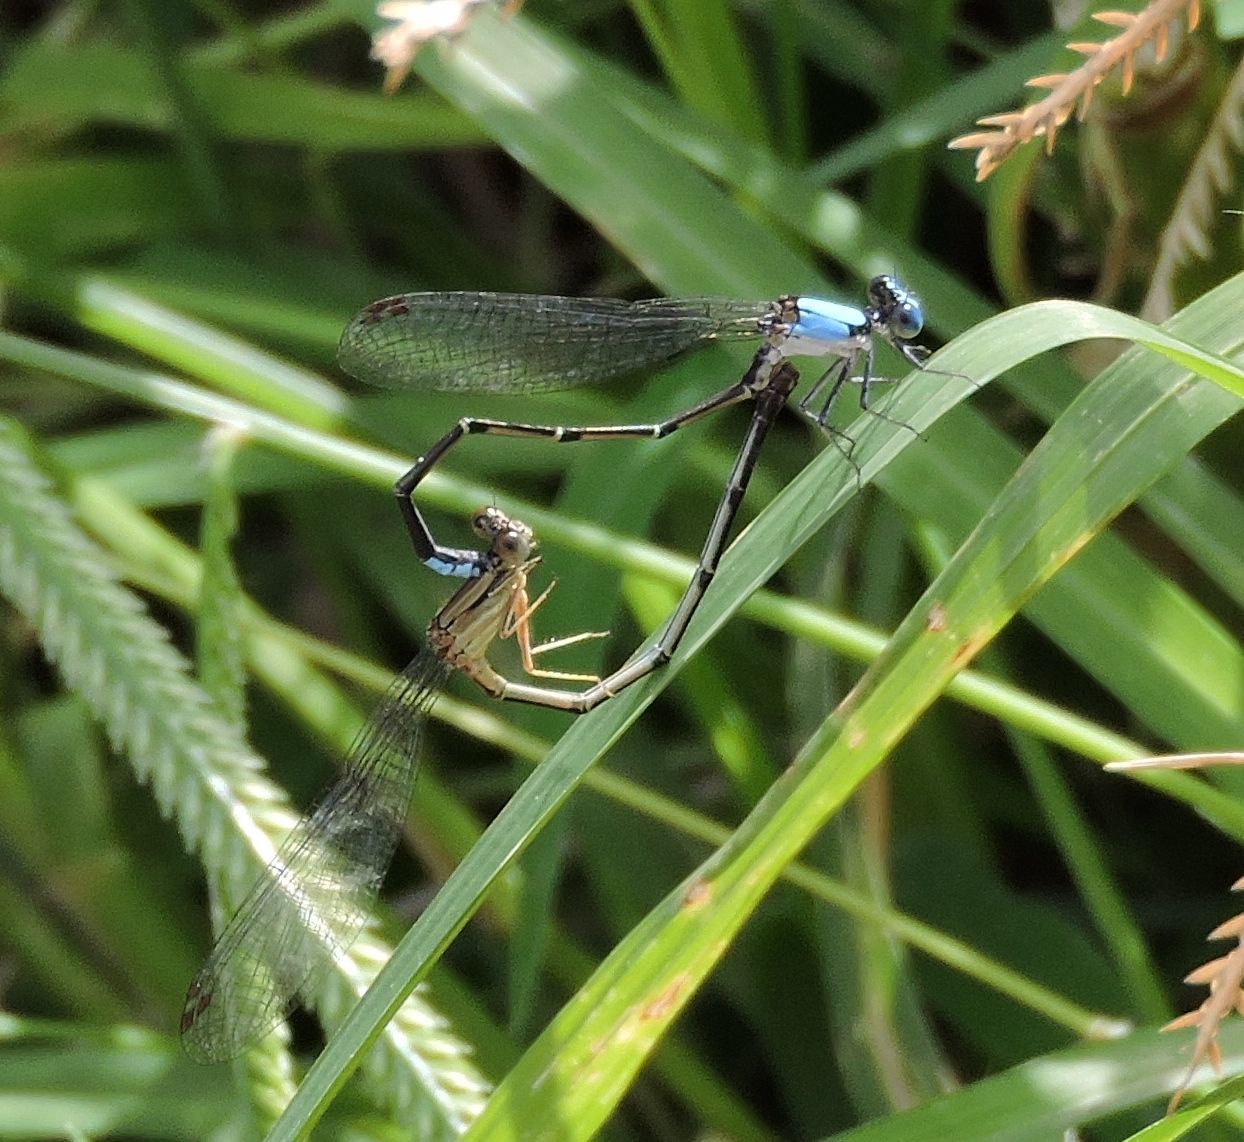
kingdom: Animalia
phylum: Arthropoda
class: Insecta
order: Odonata
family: Coenagrionidae
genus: Argia
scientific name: Argia apicalis
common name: Blue-fronted dancer
